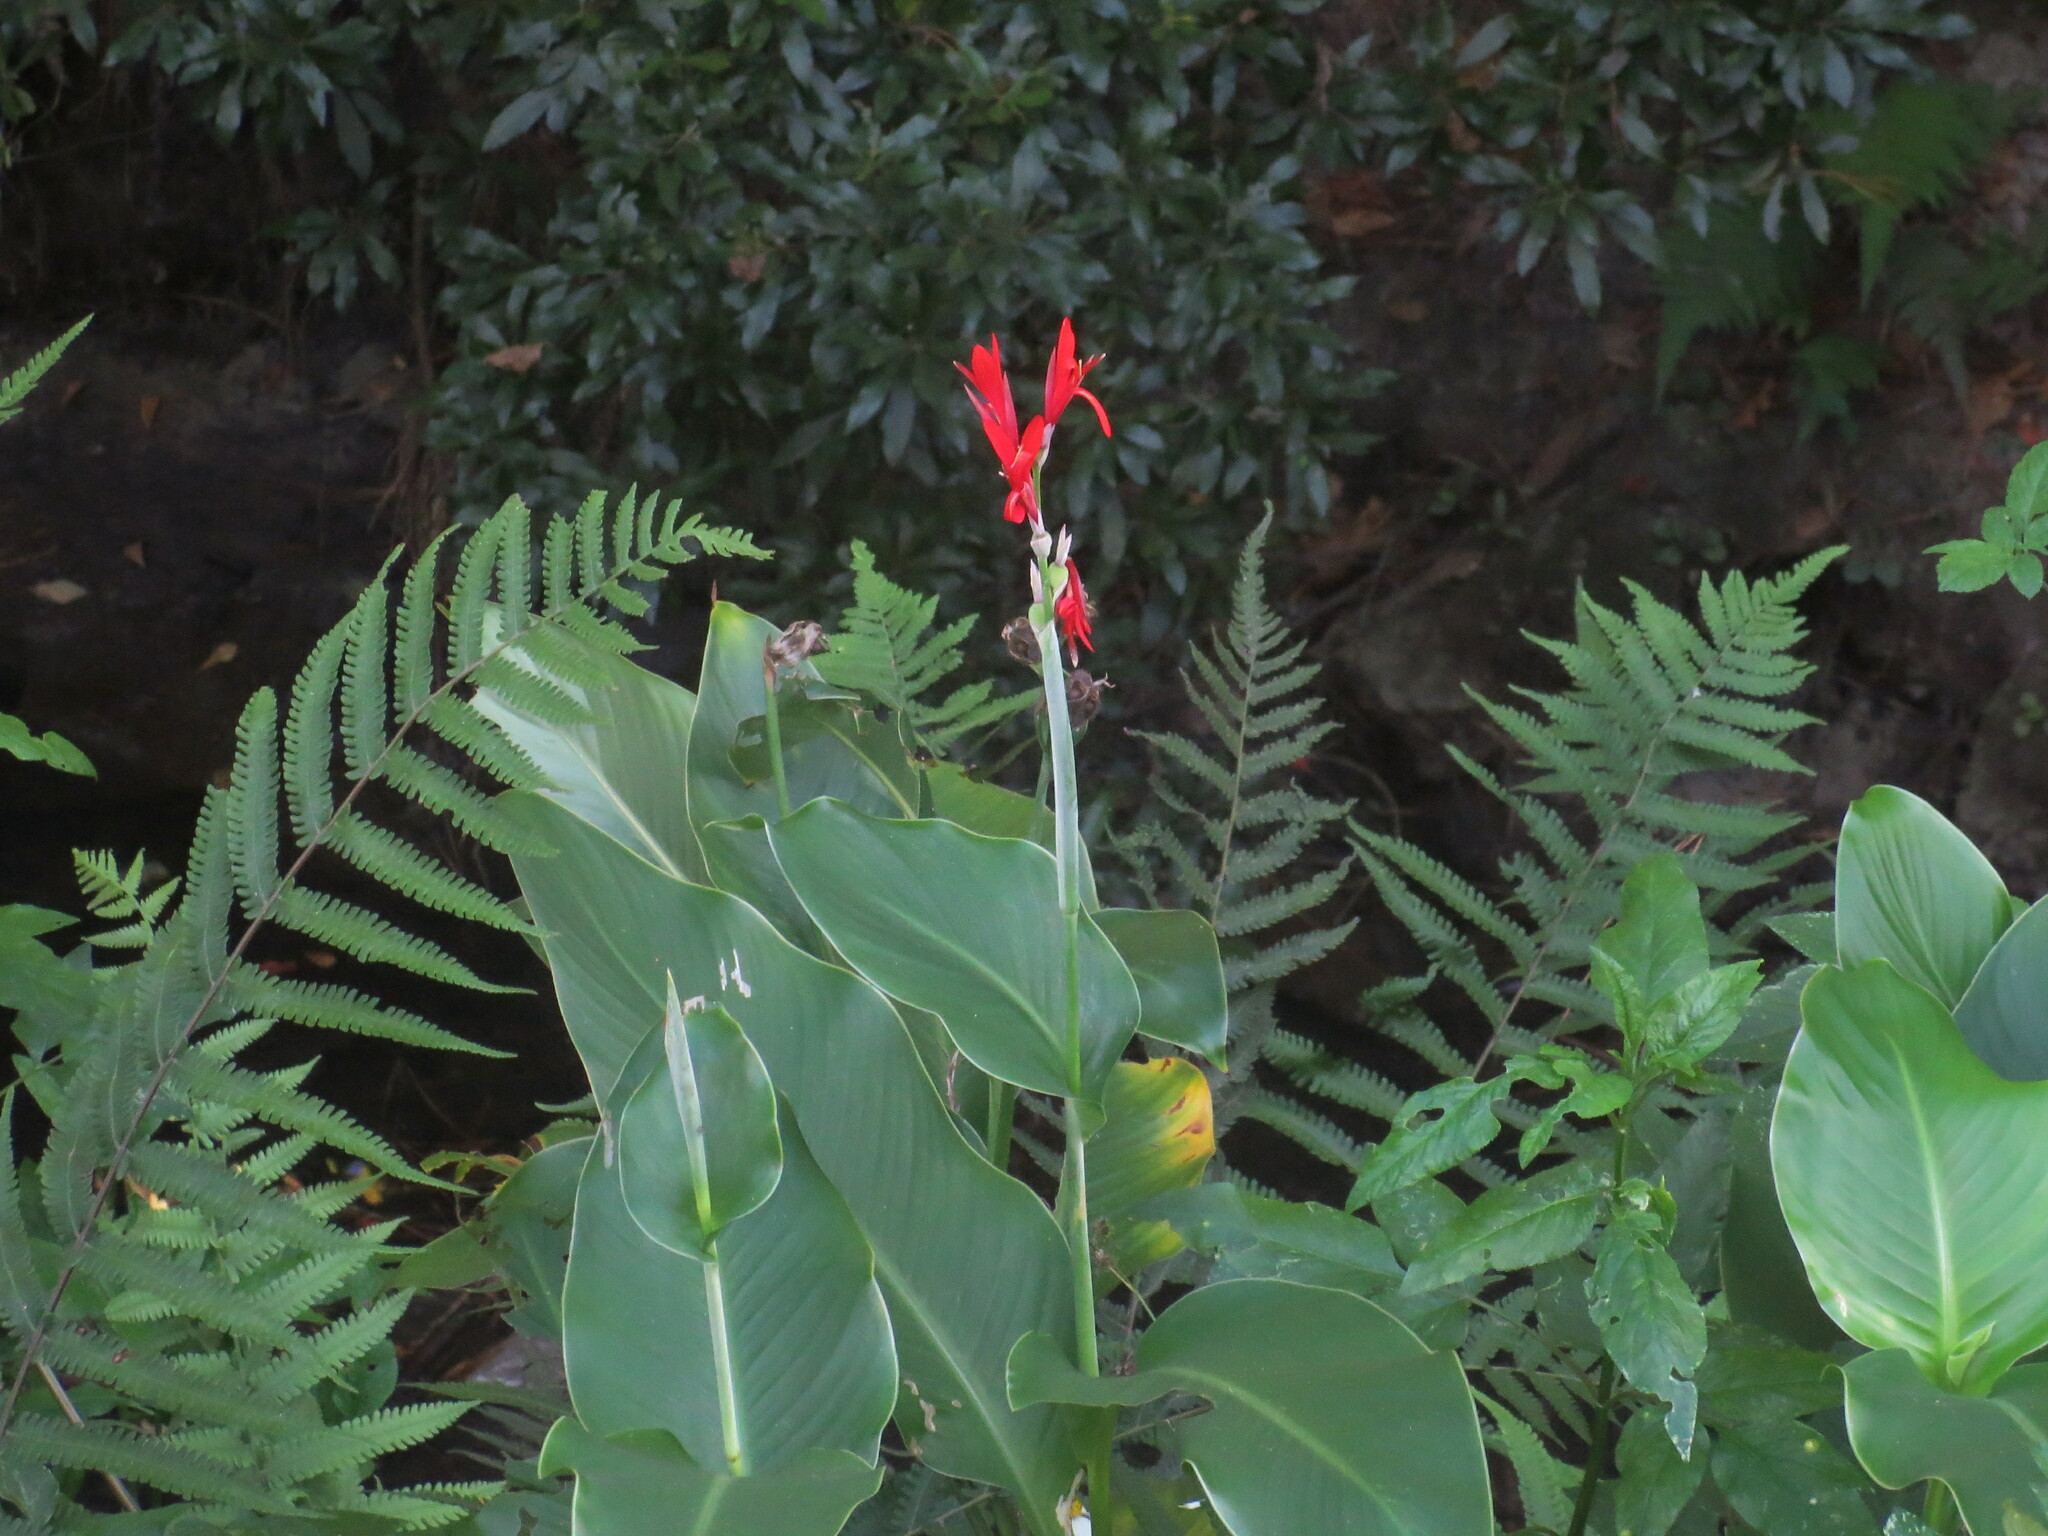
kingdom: Plantae
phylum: Tracheophyta
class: Liliopsida
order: Zingiberales
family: Cannaceae
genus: Canna
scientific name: Canna indica
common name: Indian shot
